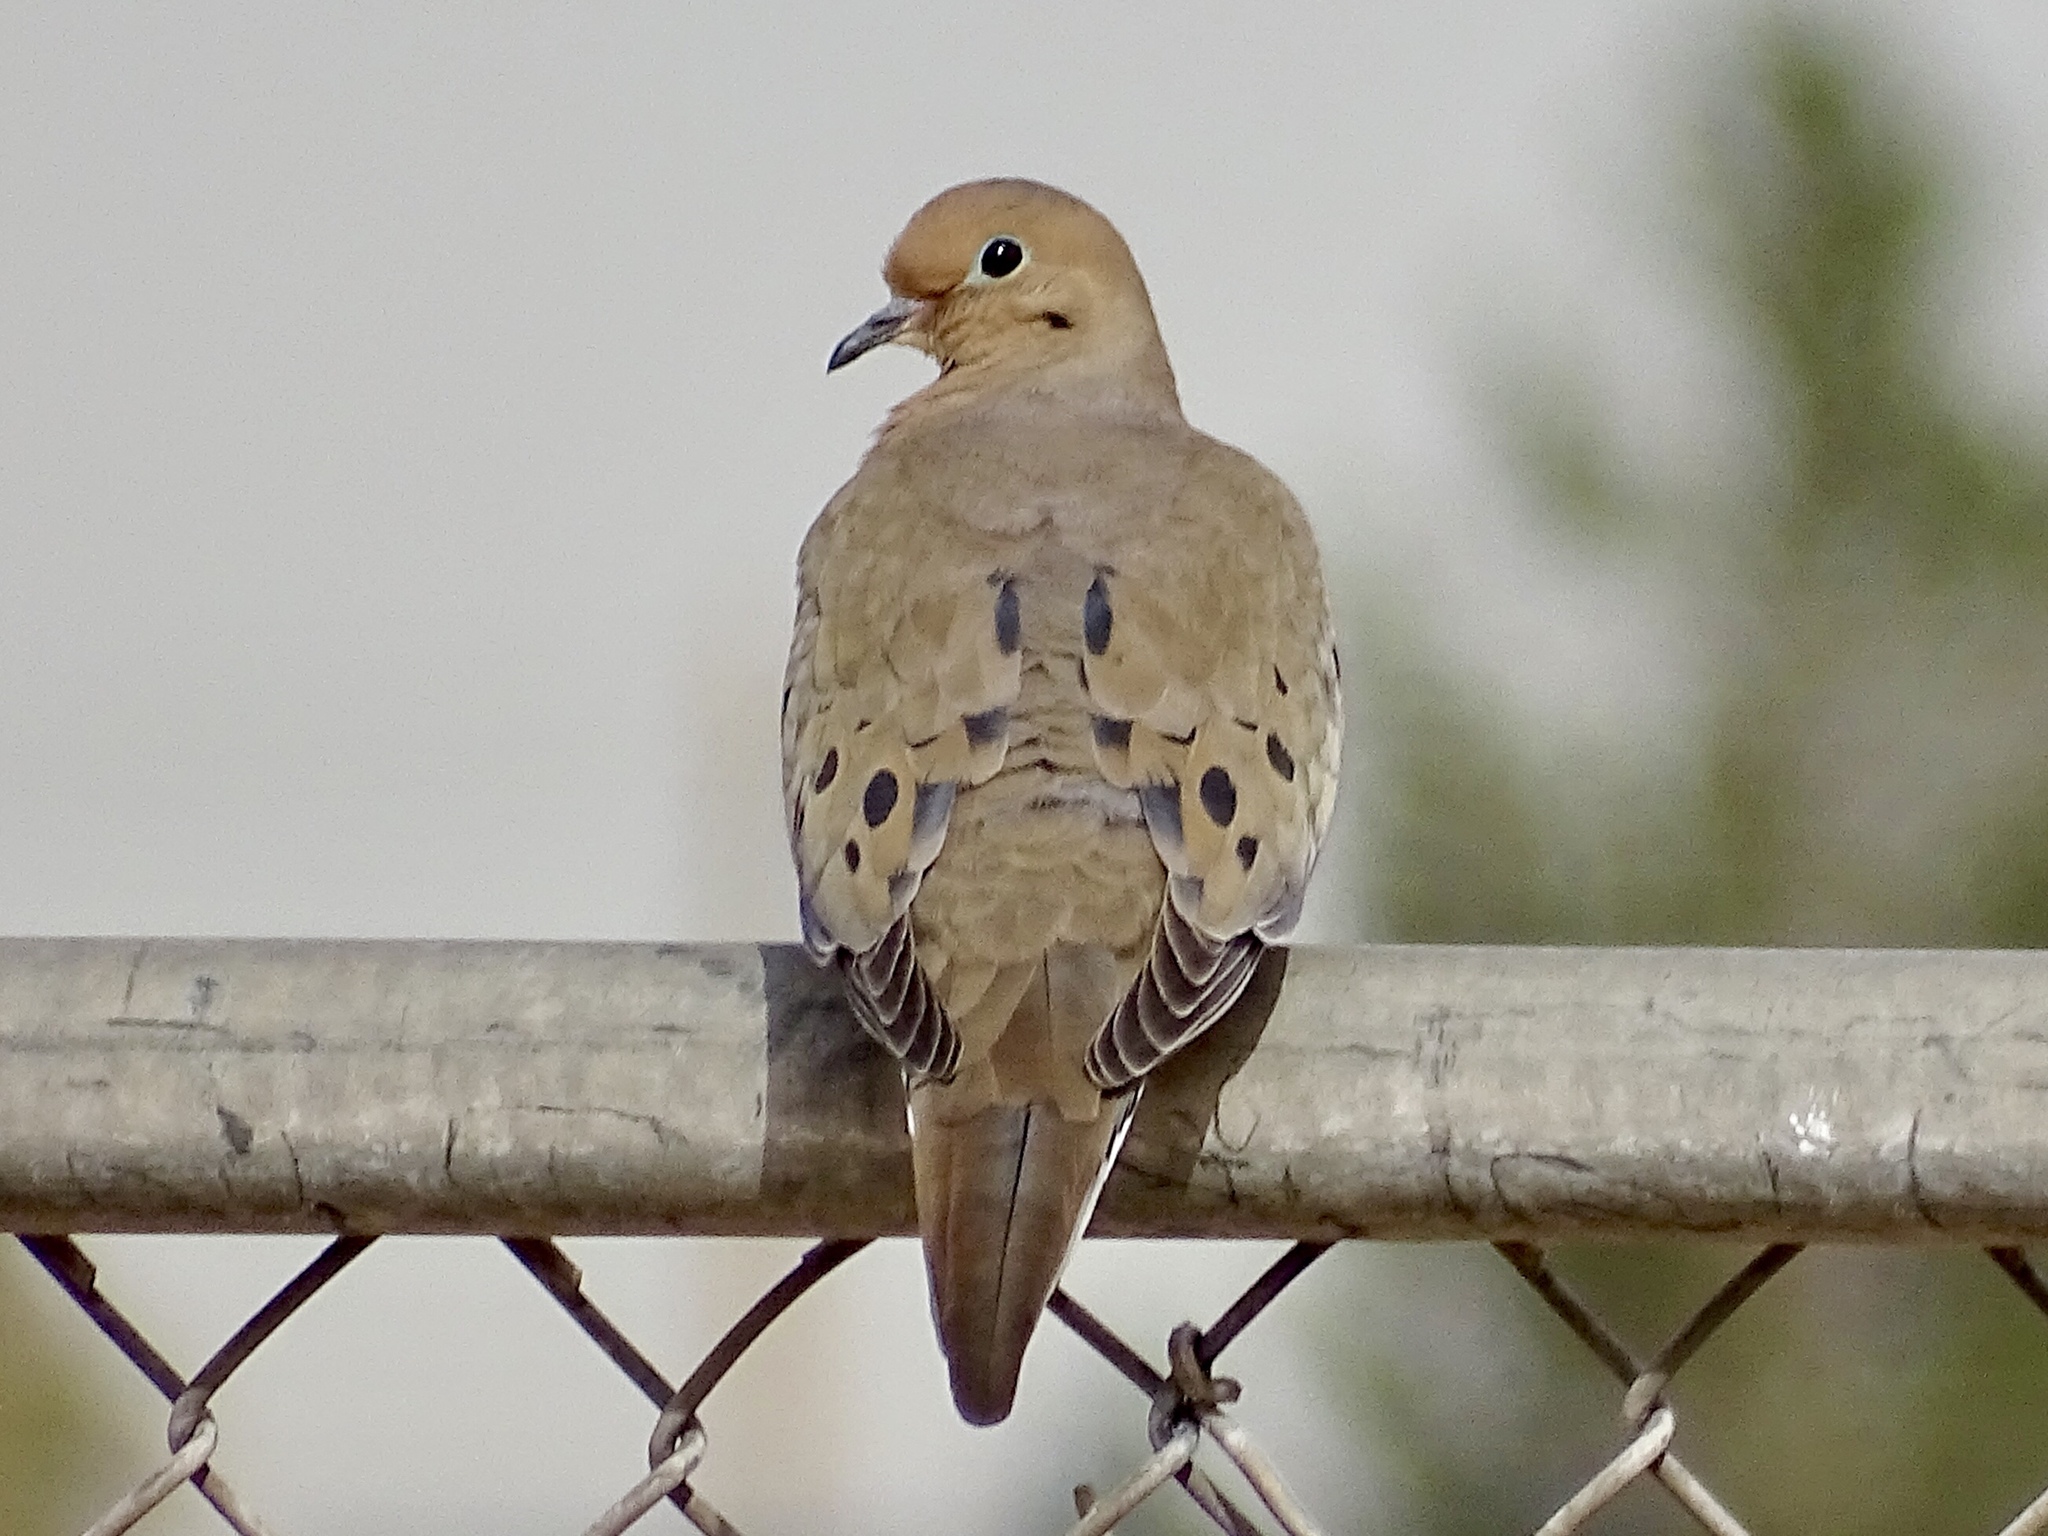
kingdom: Animalia
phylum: Chordata
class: Aves
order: Columbiformes
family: Columbidae
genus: Zenaida
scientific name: Zenaida macroura
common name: Mourning dove
